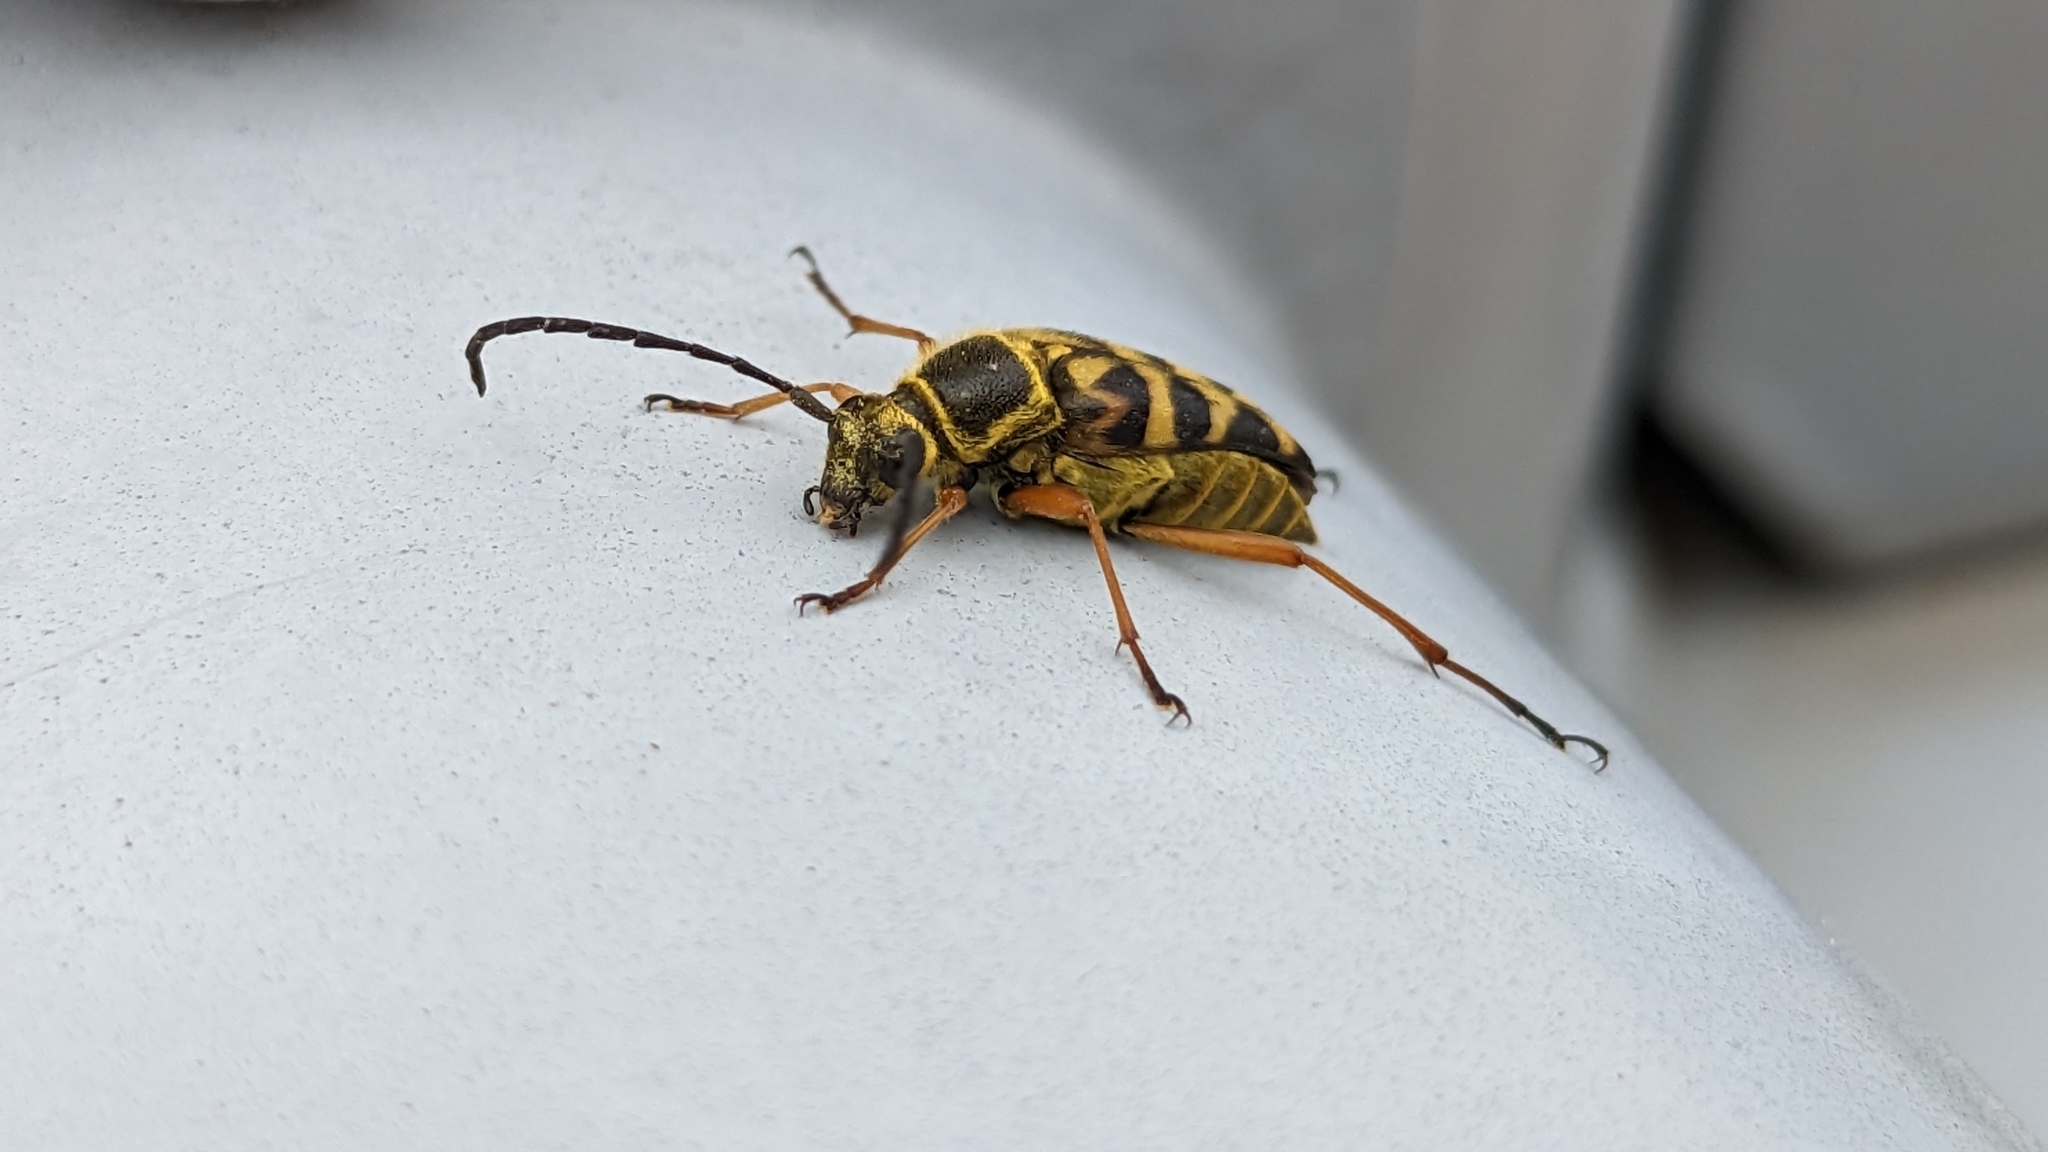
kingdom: Animalia
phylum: Arthropoda
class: Insecta
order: Coleoptera
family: Cerambycidae
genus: Typocerus
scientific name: Typocerus zebra
